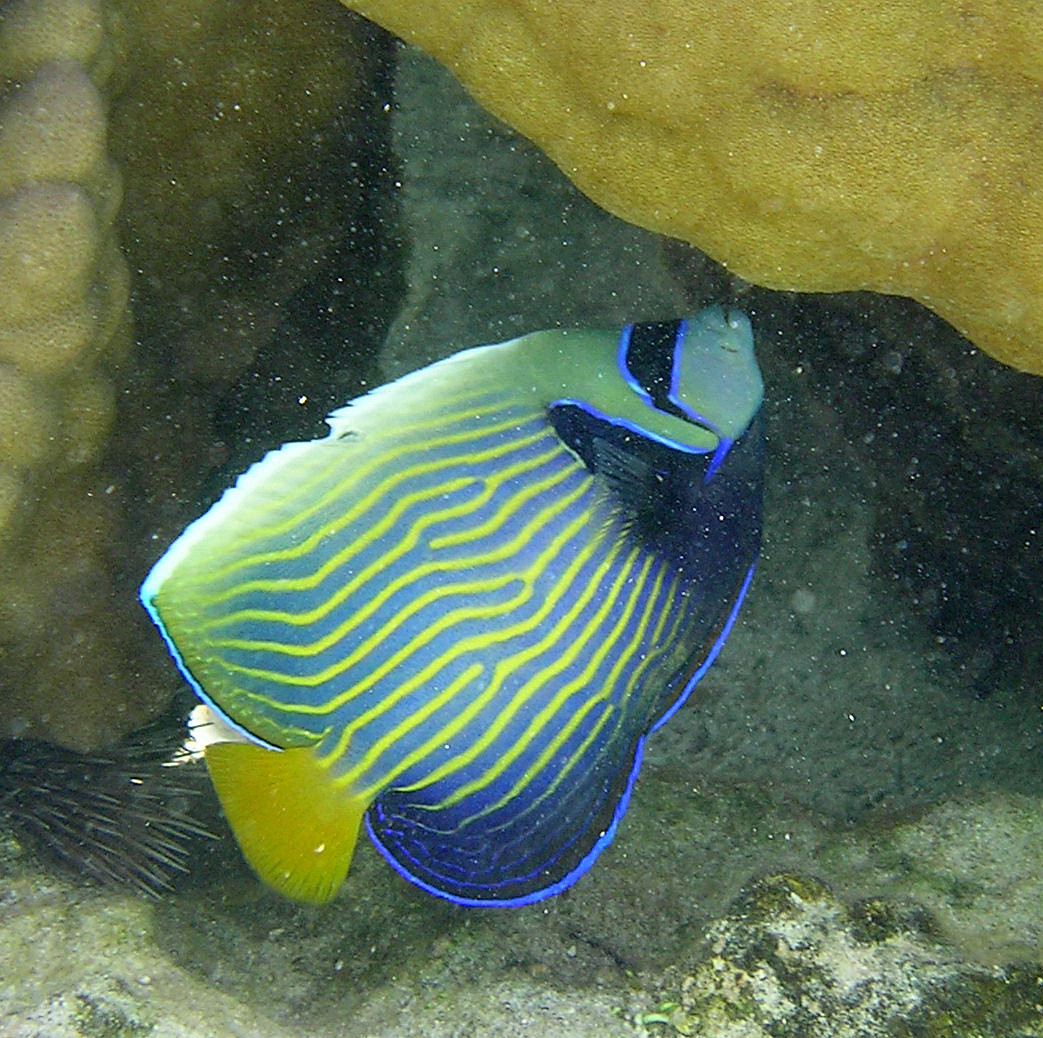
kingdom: Animalia
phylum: Chordata
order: Perciformes
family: Pomacanthidae
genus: Pomacanthus
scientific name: Pomacanthus imperator
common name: Emperor angelfish
